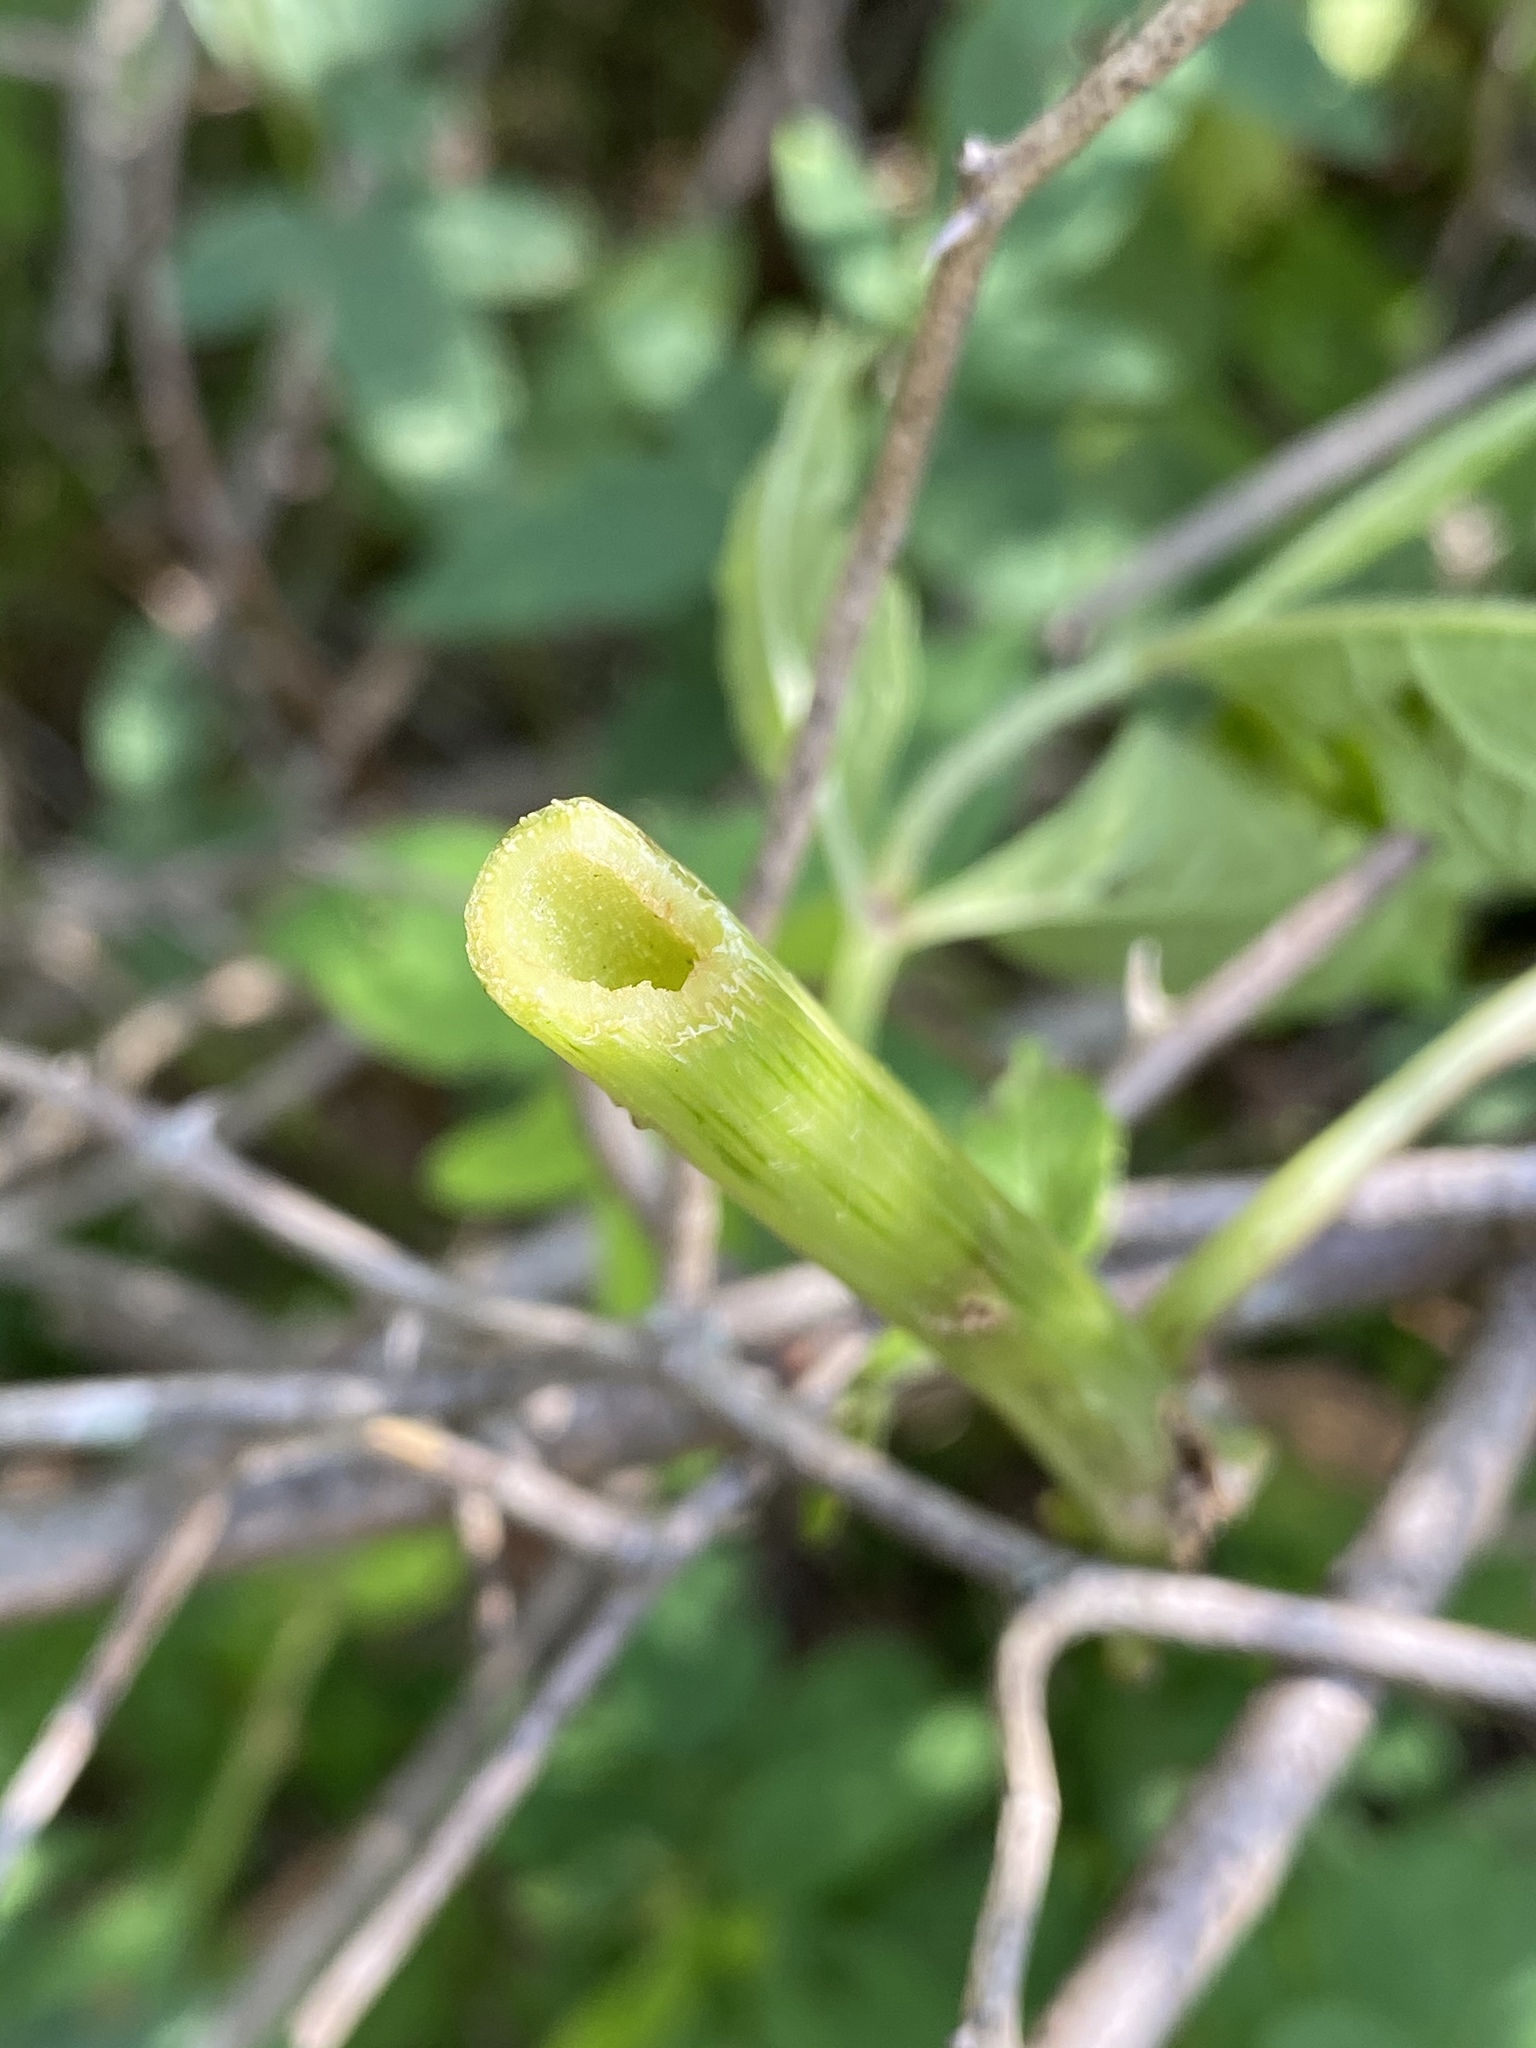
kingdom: Plantae
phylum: Tracheophyta
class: Magnoliopsida
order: Asterales
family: Asteraceae
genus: Eutrochium
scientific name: Eutrochium fistulosum
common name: Trumpetweed
